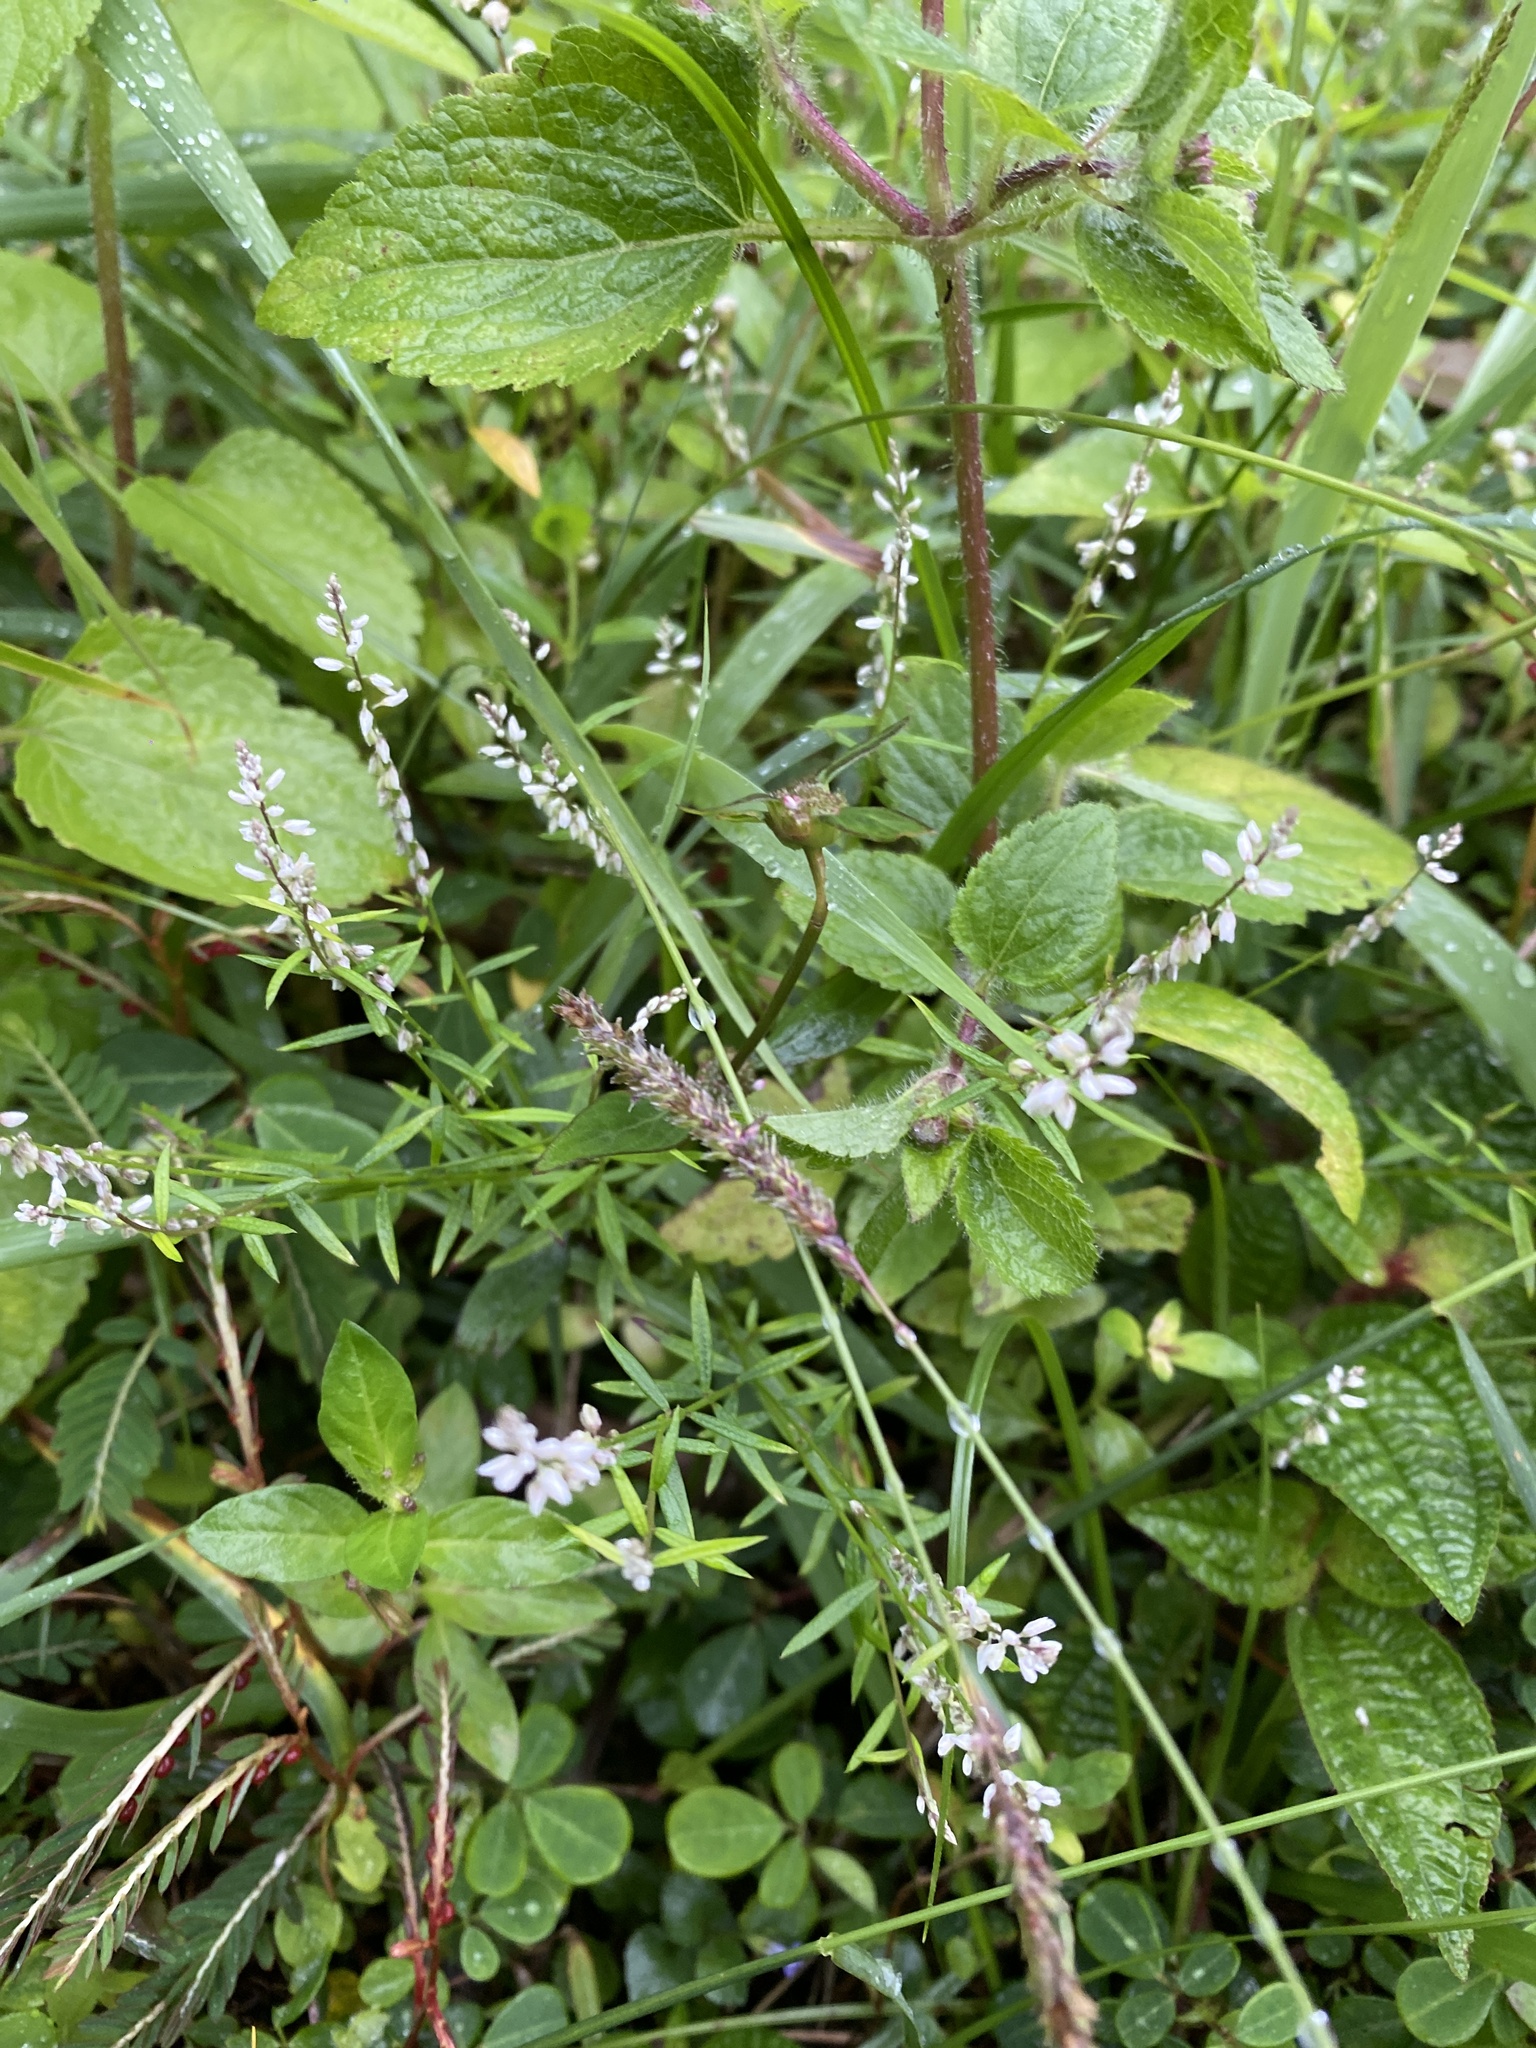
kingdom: Plantae
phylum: Tracheophyta
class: Magnoliopsida
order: Fabales
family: Polygalaceae
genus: Polygala
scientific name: Polygala paniculata
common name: Orosne
